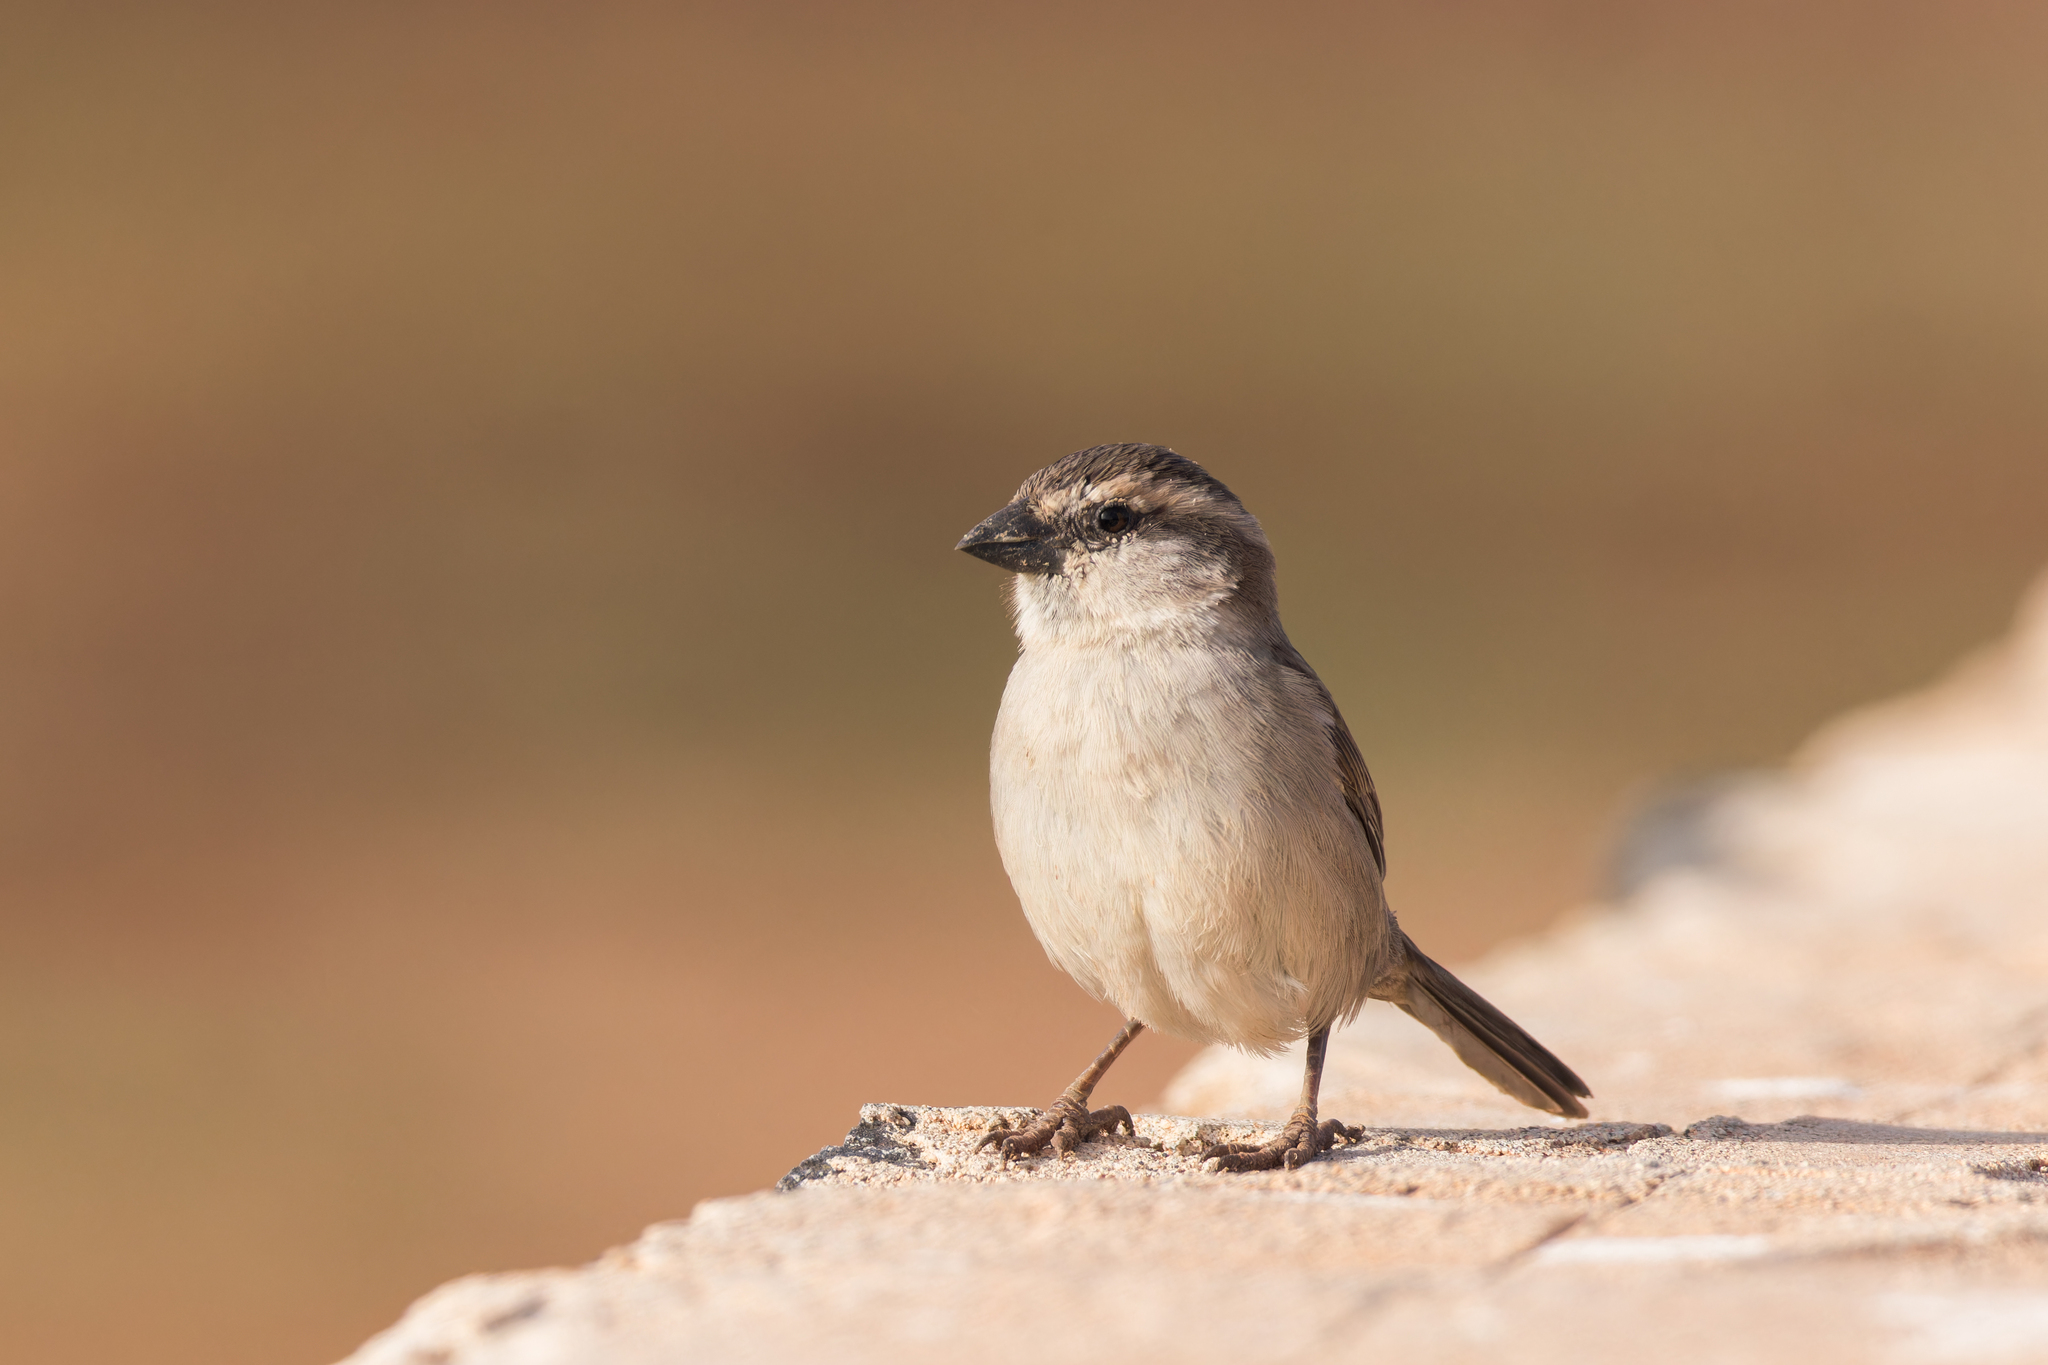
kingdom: Animalia
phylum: Chordata
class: Aves
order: Passeriformes
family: Passeridae
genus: Passer
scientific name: Passer iagoensis
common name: Iago sparrow
